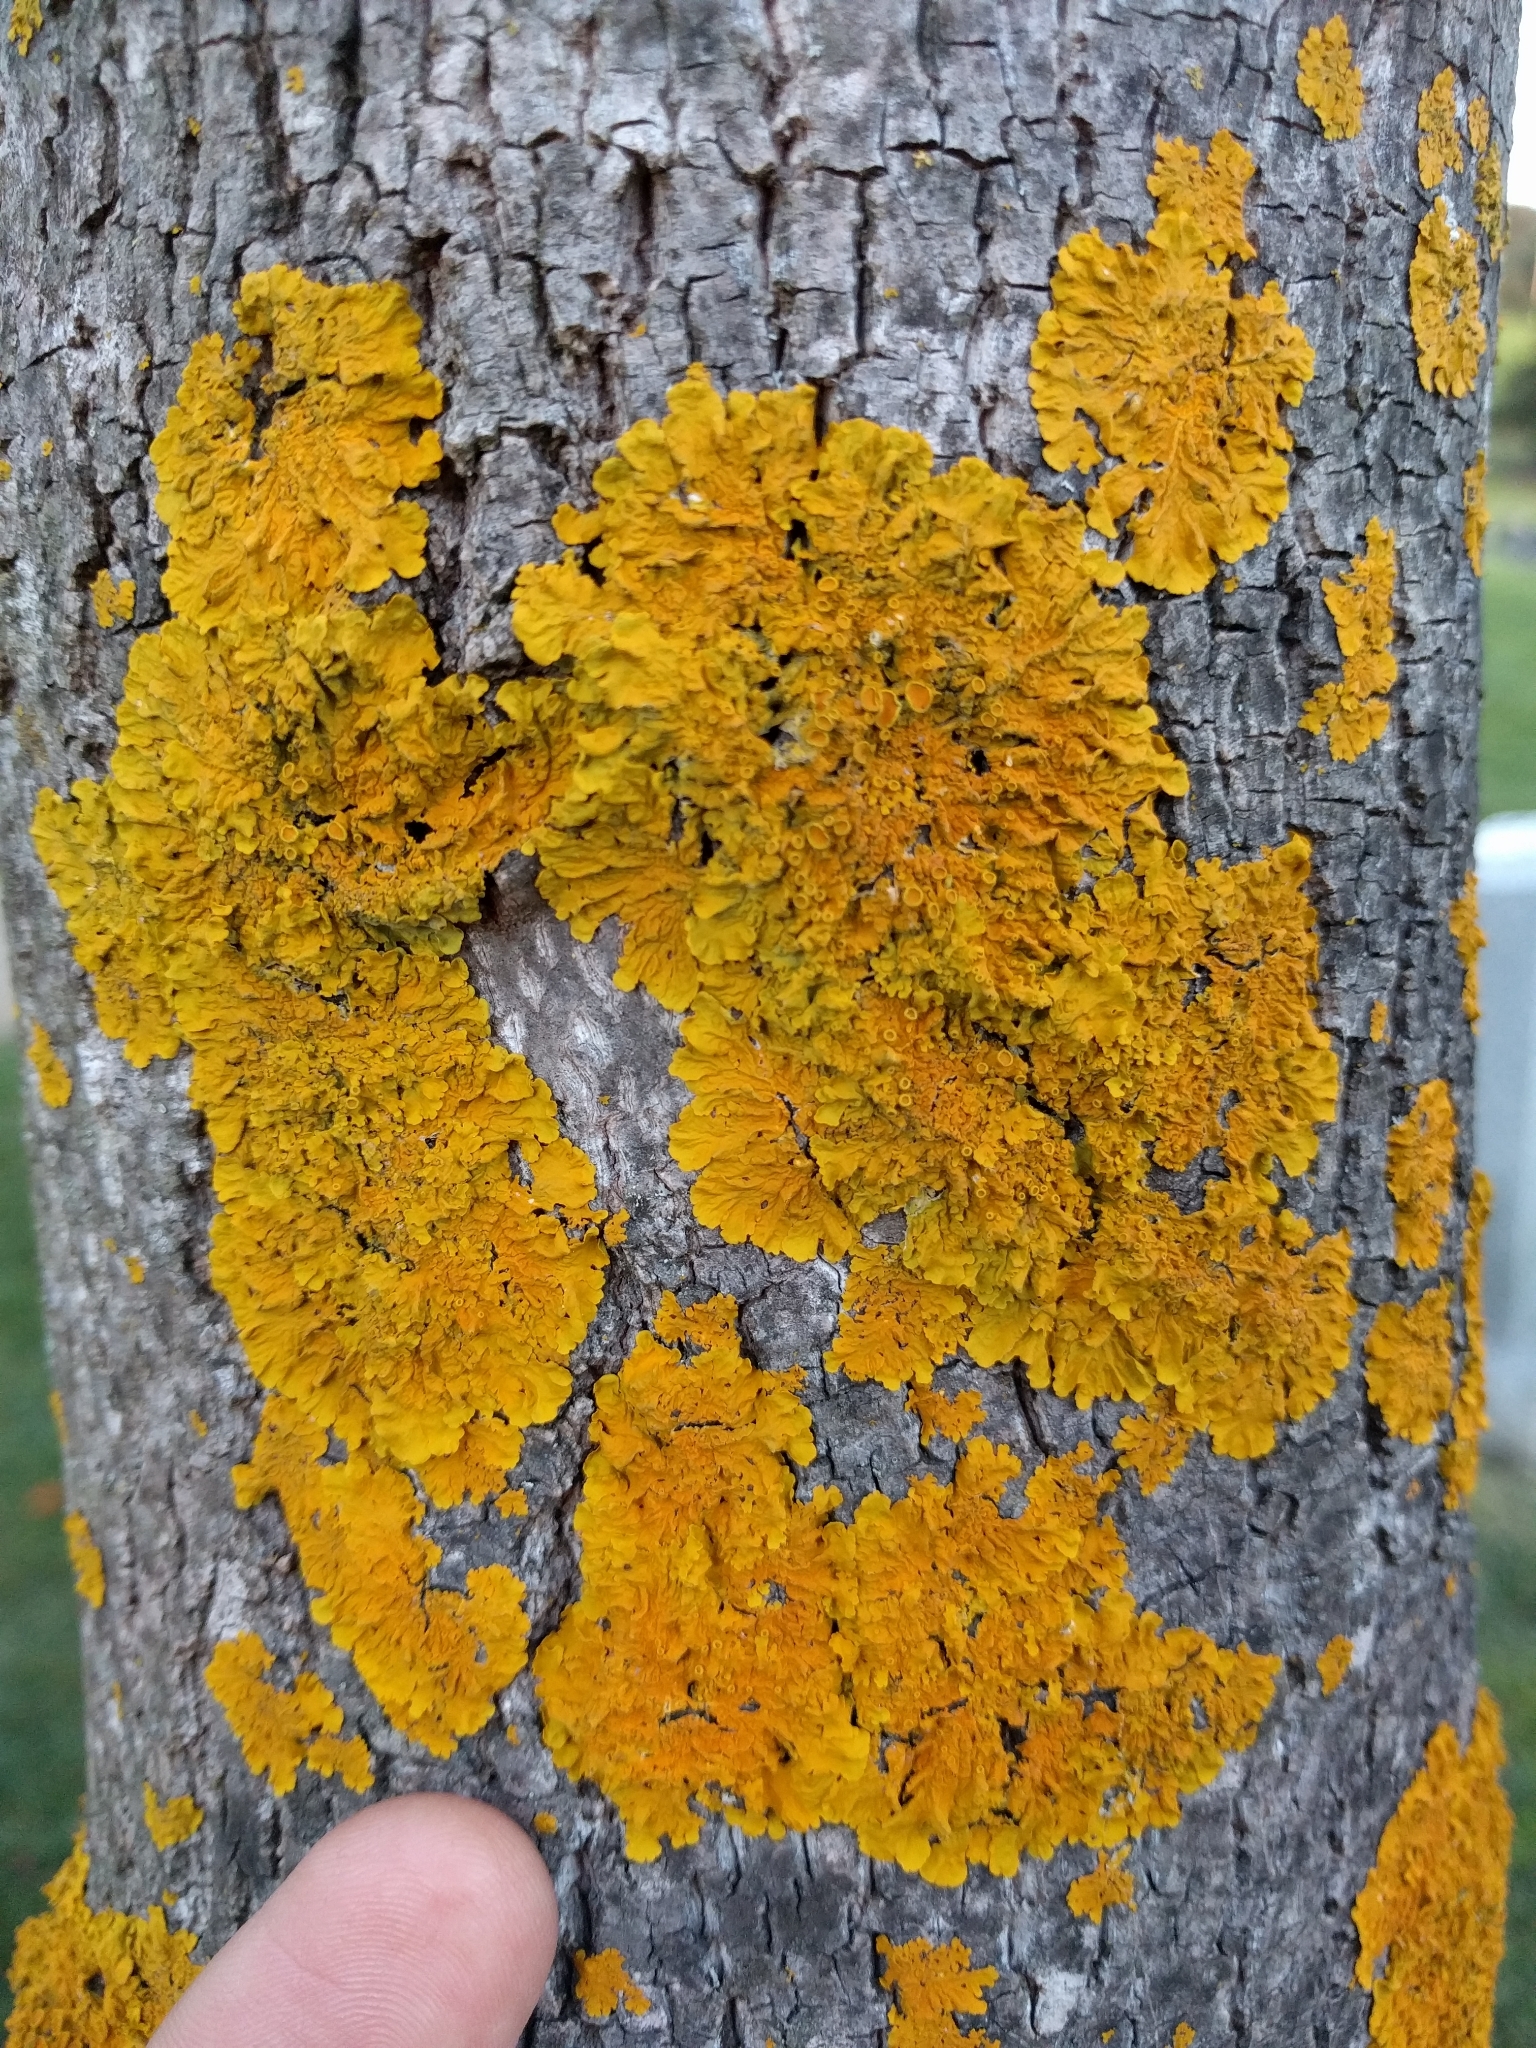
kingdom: Fungi
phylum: Ascomycota
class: Lecanoromycetes
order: Teloschistales
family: Teloschistaceae
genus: Xanthoria
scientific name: Xanthoria parietina
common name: Common orange lichen
